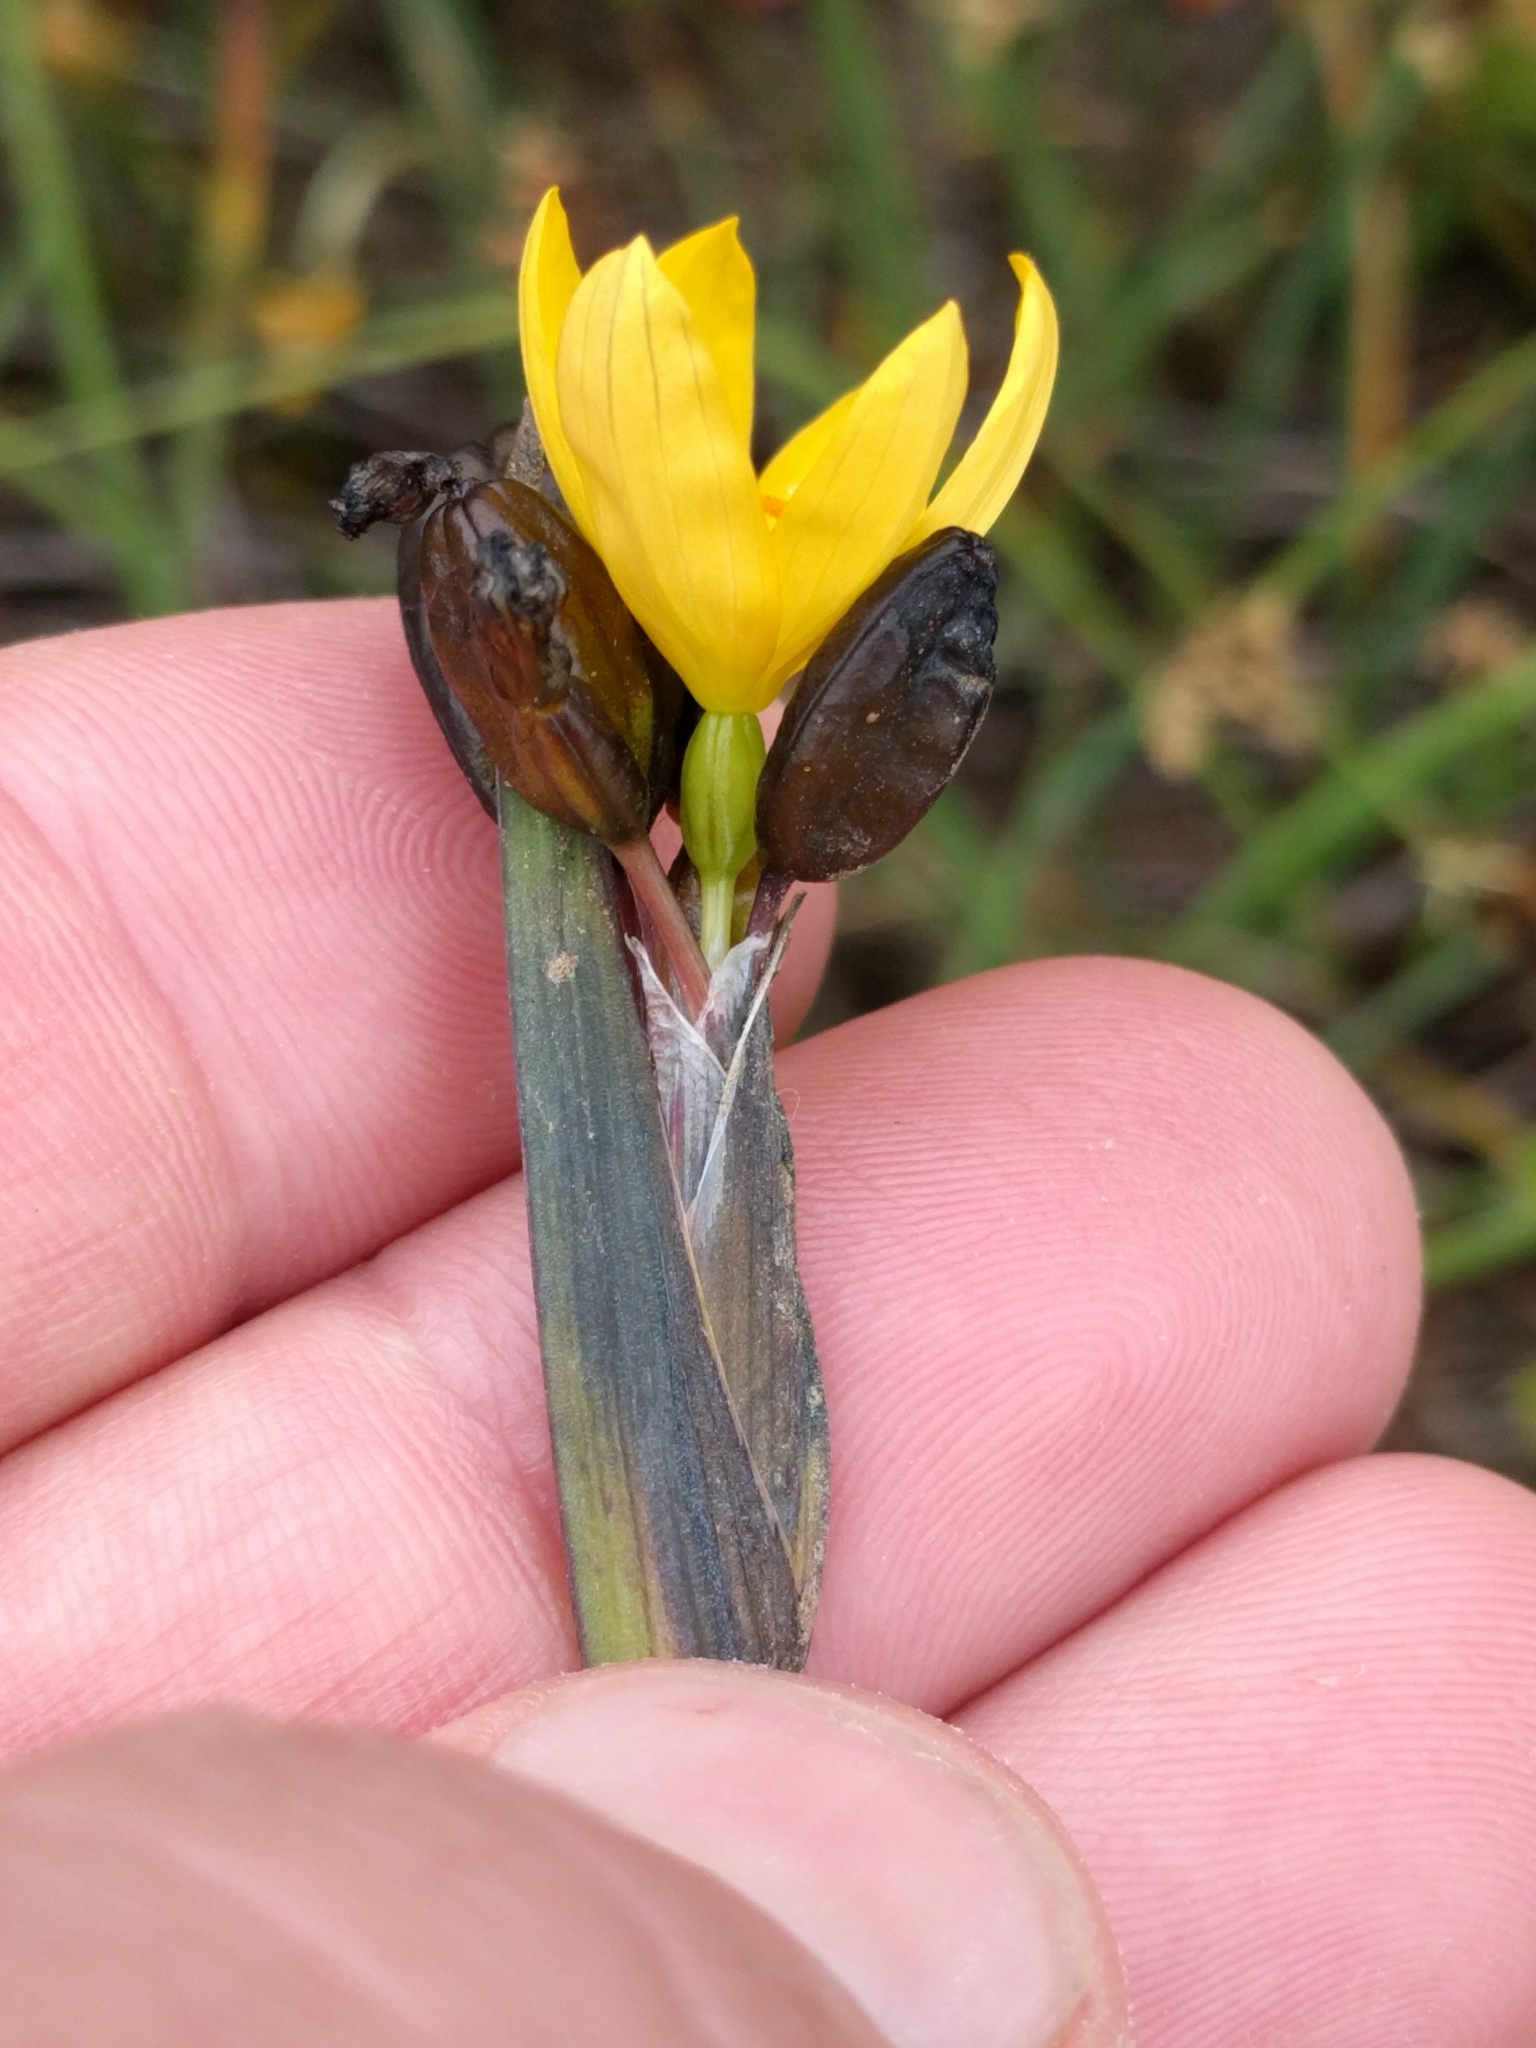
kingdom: Plantae
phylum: Tracheophyta
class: Liliopsida
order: Asparagales
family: Iridaceae
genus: Sisyrinchium
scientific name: Sisyrinchium californicum
